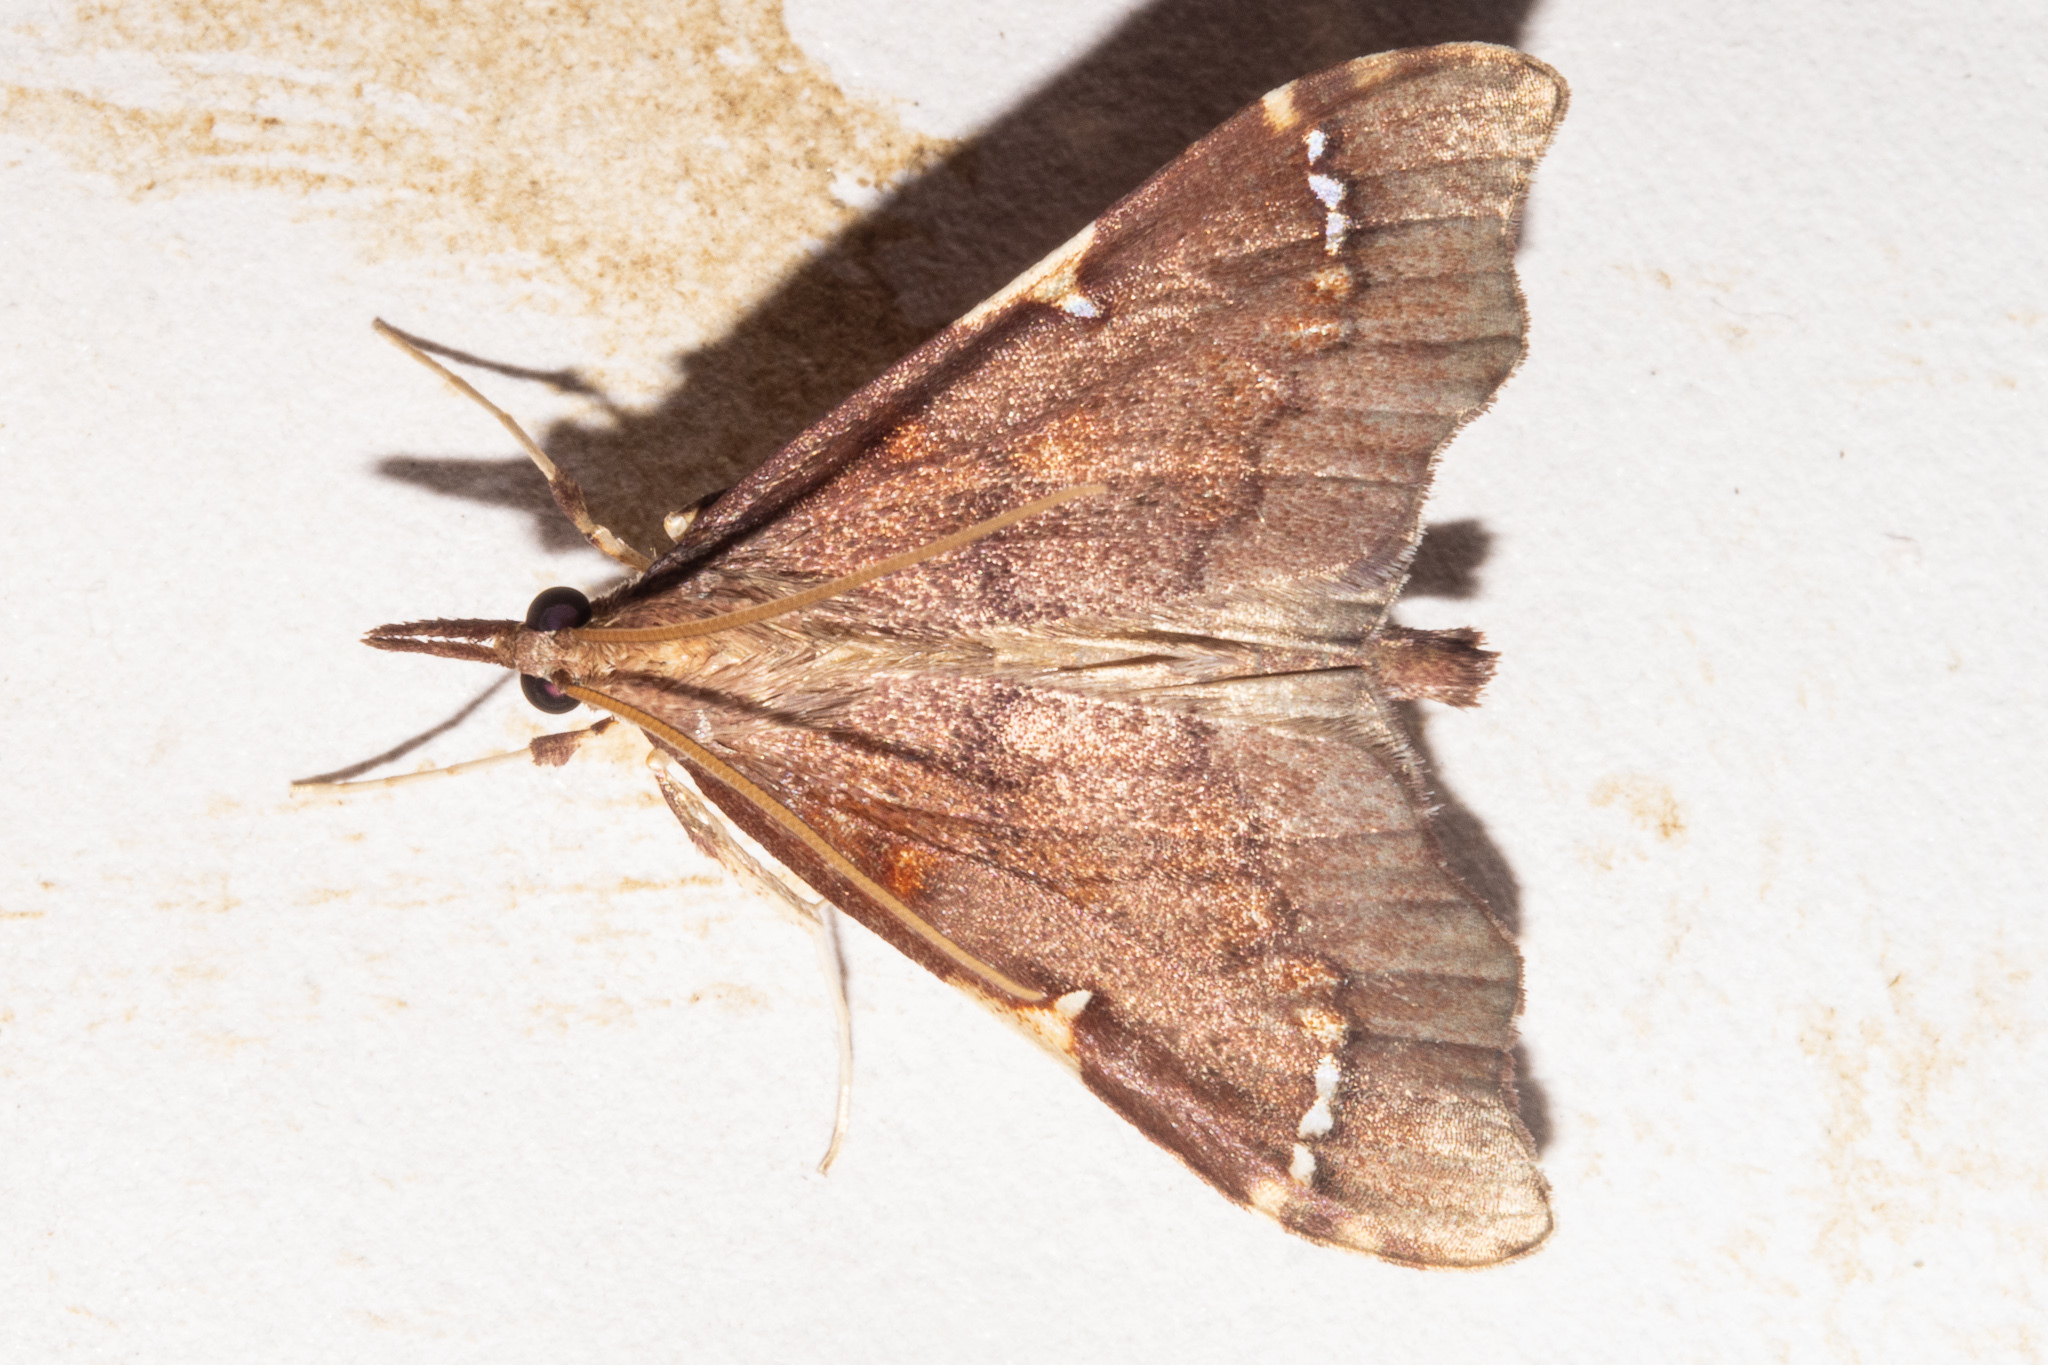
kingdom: Animalia
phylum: Arthropoda
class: Insecta
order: Lepidoptera
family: Crambidae
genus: Deana
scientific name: Deana hybreasalis
